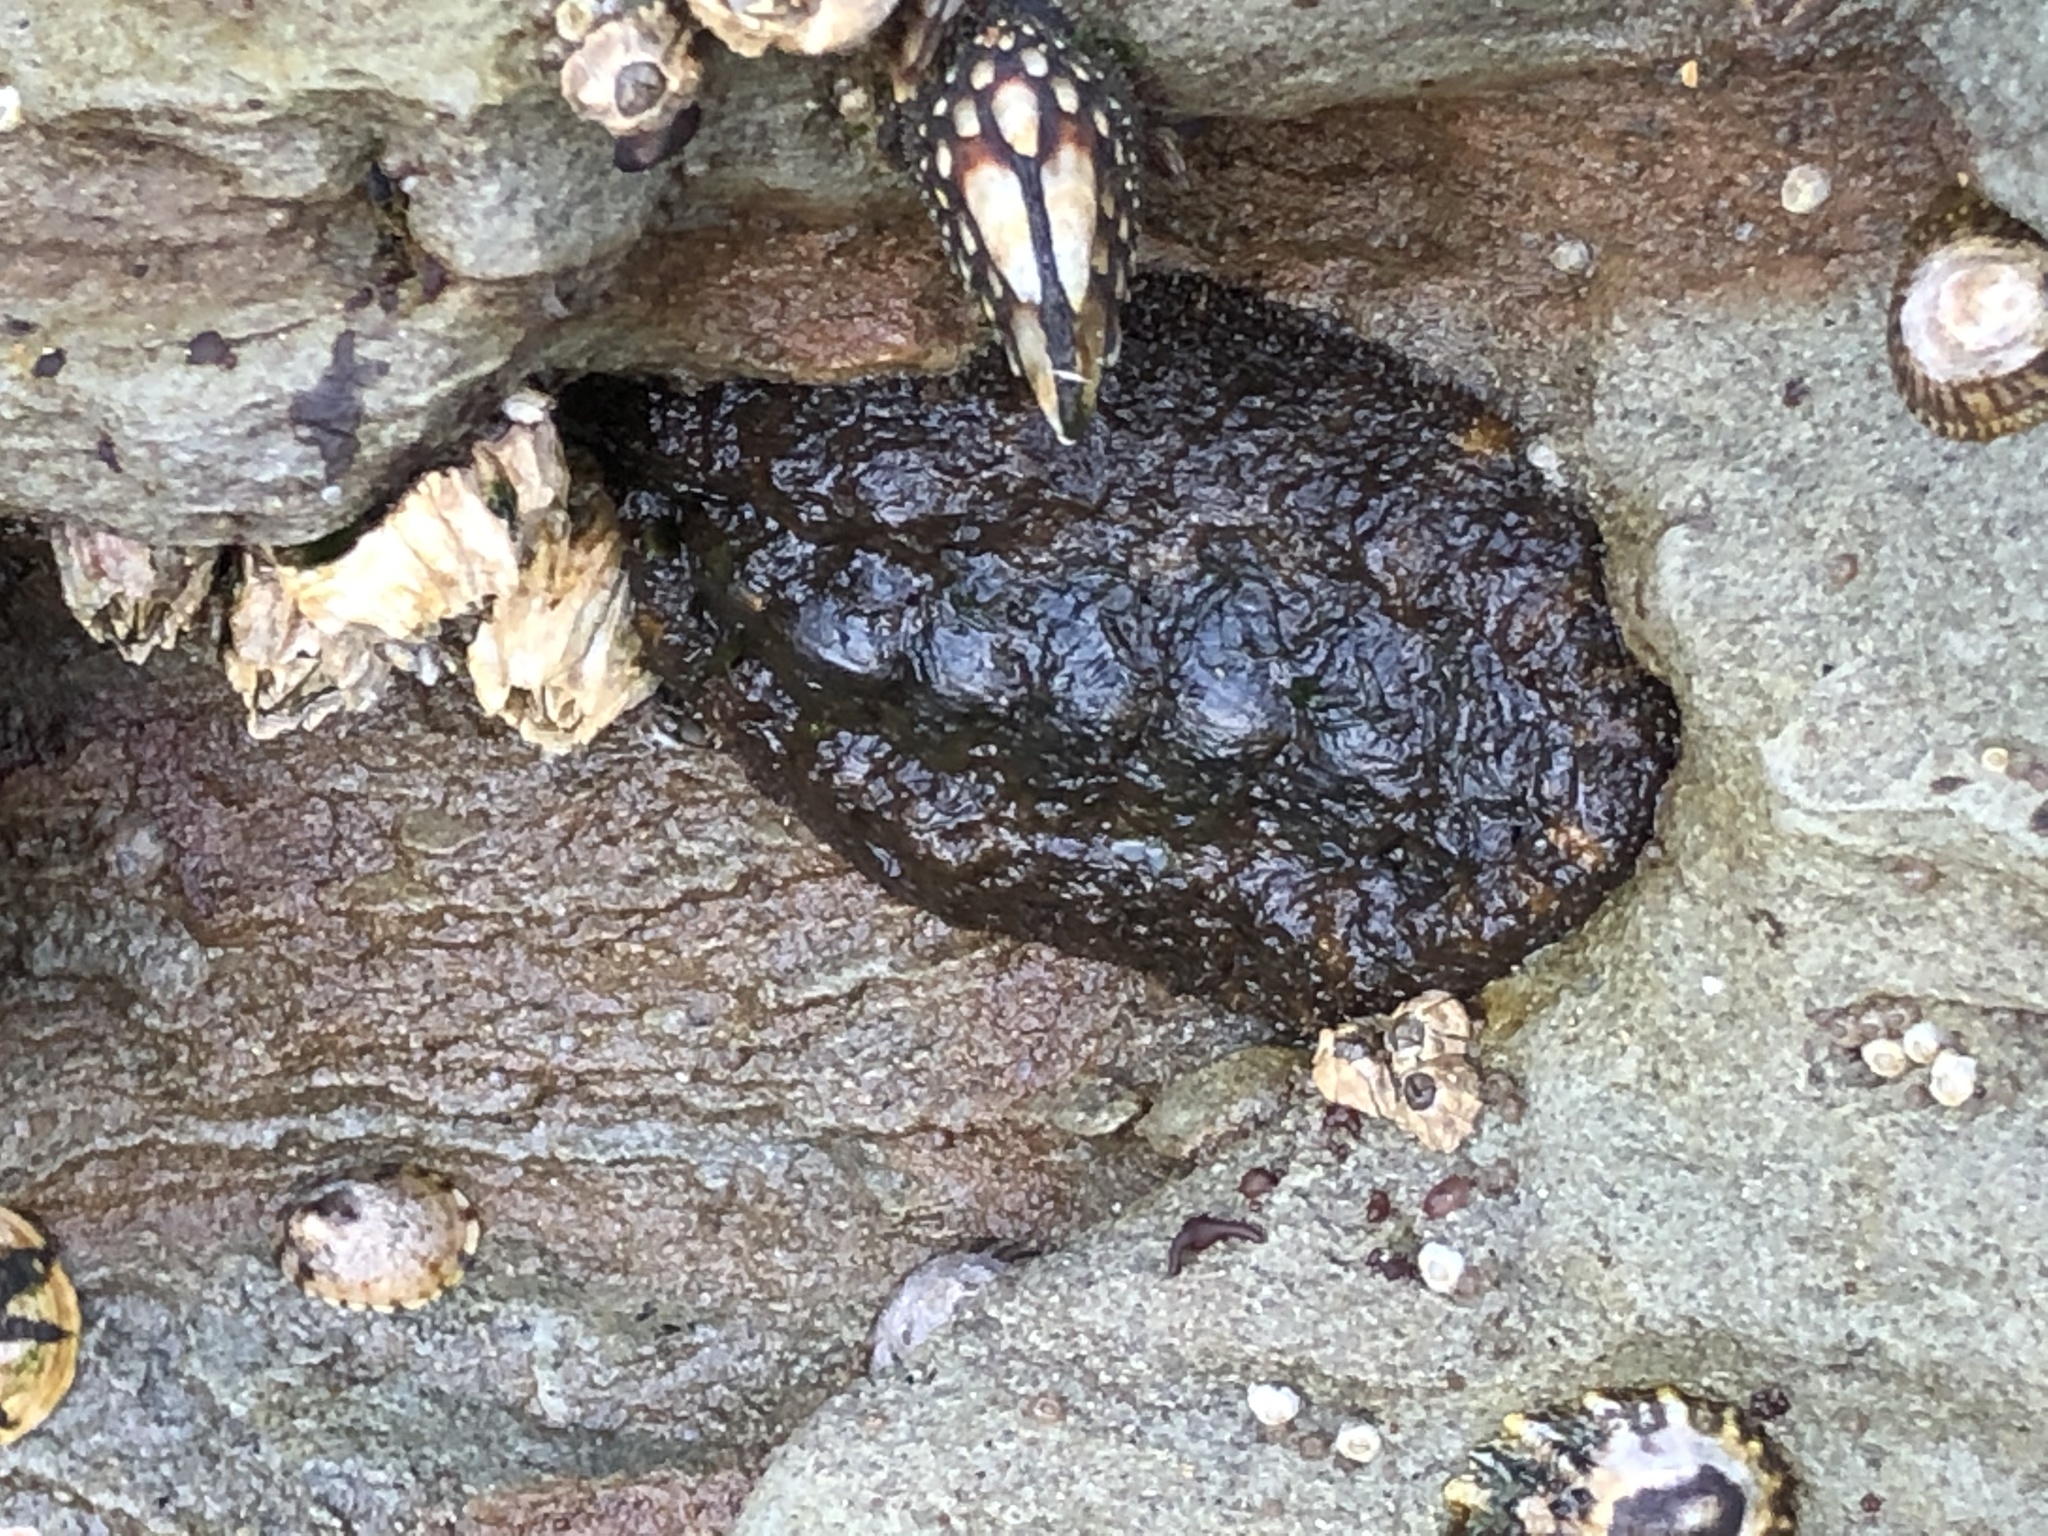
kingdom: Animalia
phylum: Mollusca
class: Polyplacophora
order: Chitonida
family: Tonicellidae
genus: Nuttallina
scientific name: Nuttallina californica
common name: California nuttall chiton
